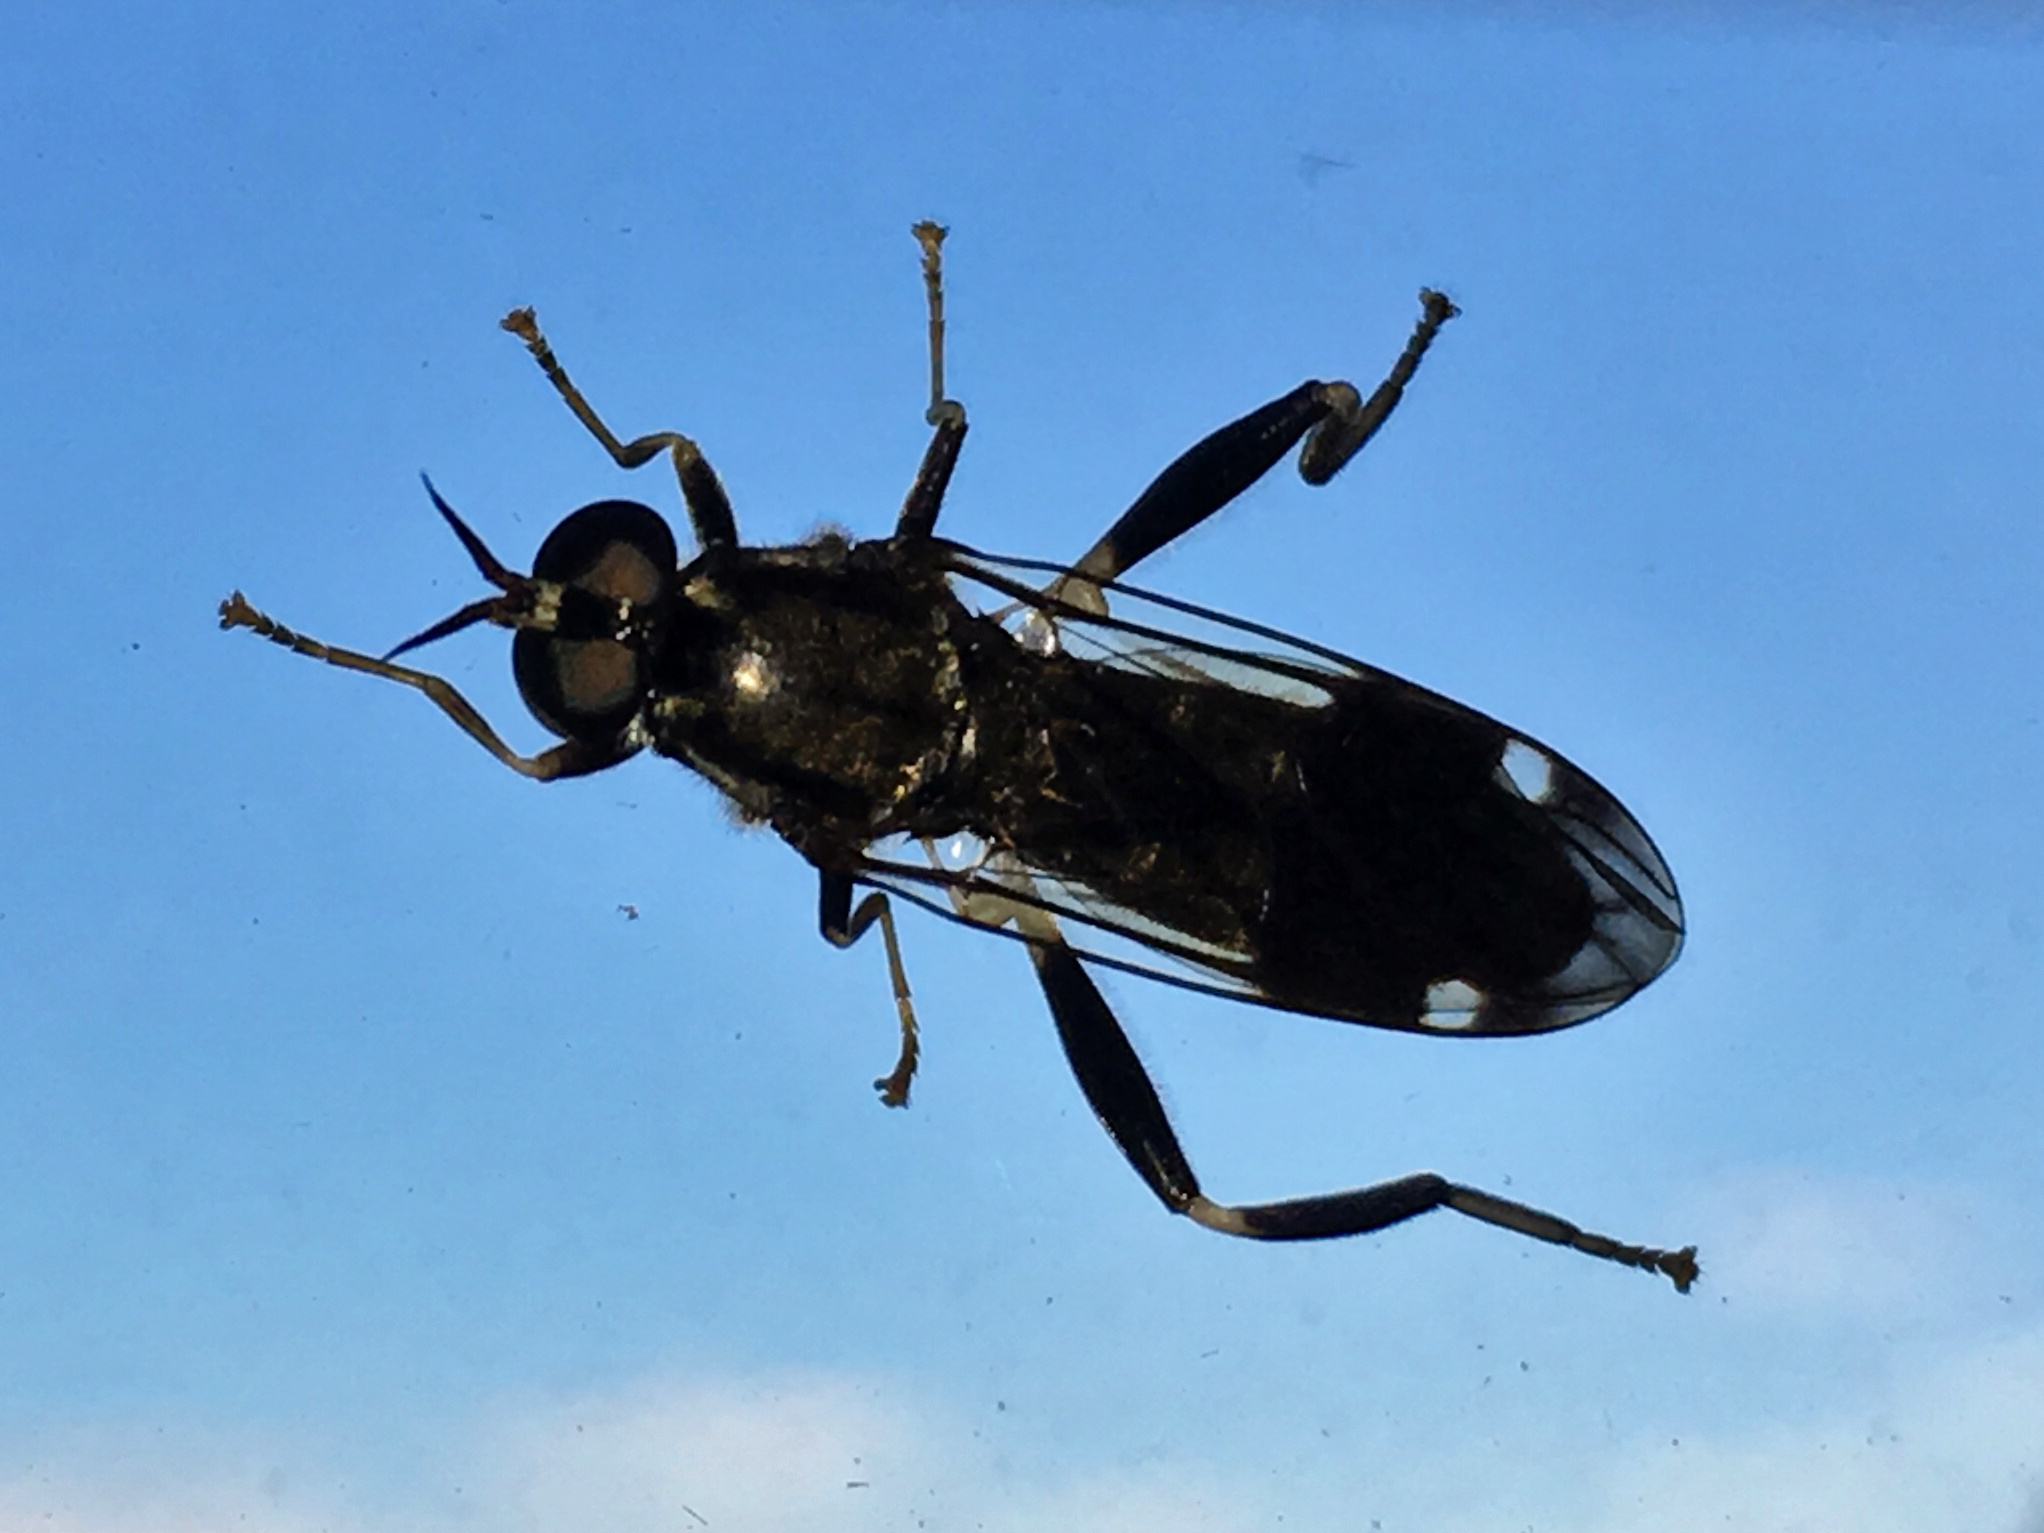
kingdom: Animalia
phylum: Arthropoda
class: Insecta
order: Diptera
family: Stratiomyidae
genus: Exaireta
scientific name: Exaireta spinigera
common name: Blue soldier fly
